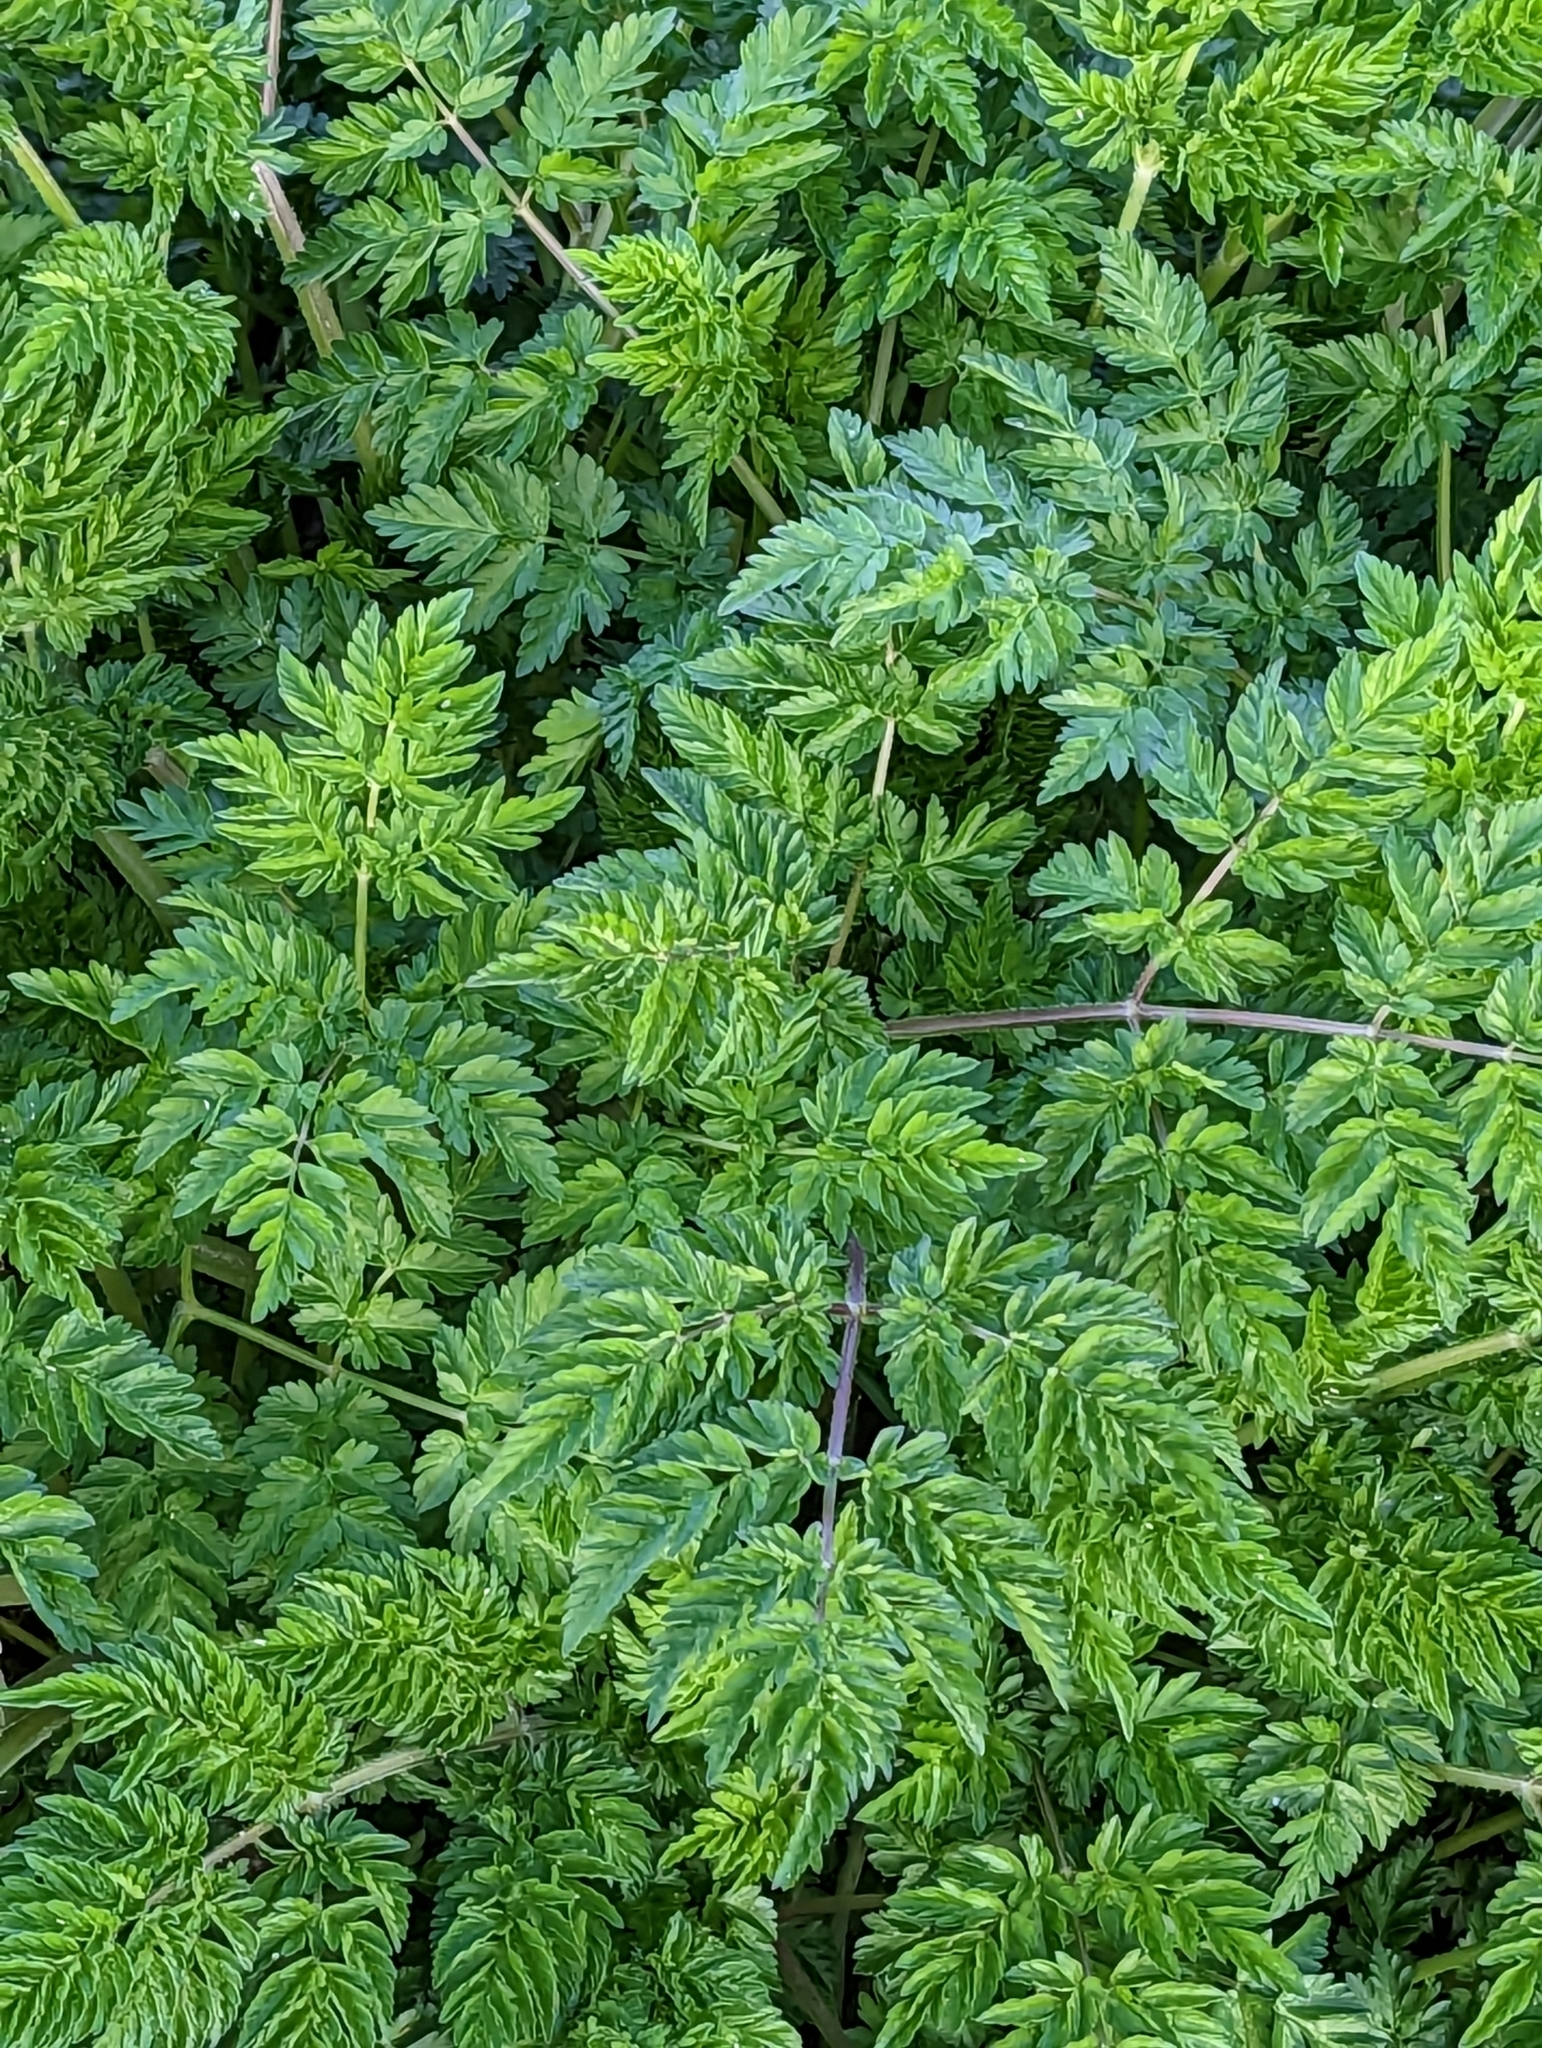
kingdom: Plantae
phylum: Tracheophyta
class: Magnoliopsida
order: Apiales
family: Apiaceae
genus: Anthriscus
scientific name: Anthriscus sylvestris
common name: Cow parsley
